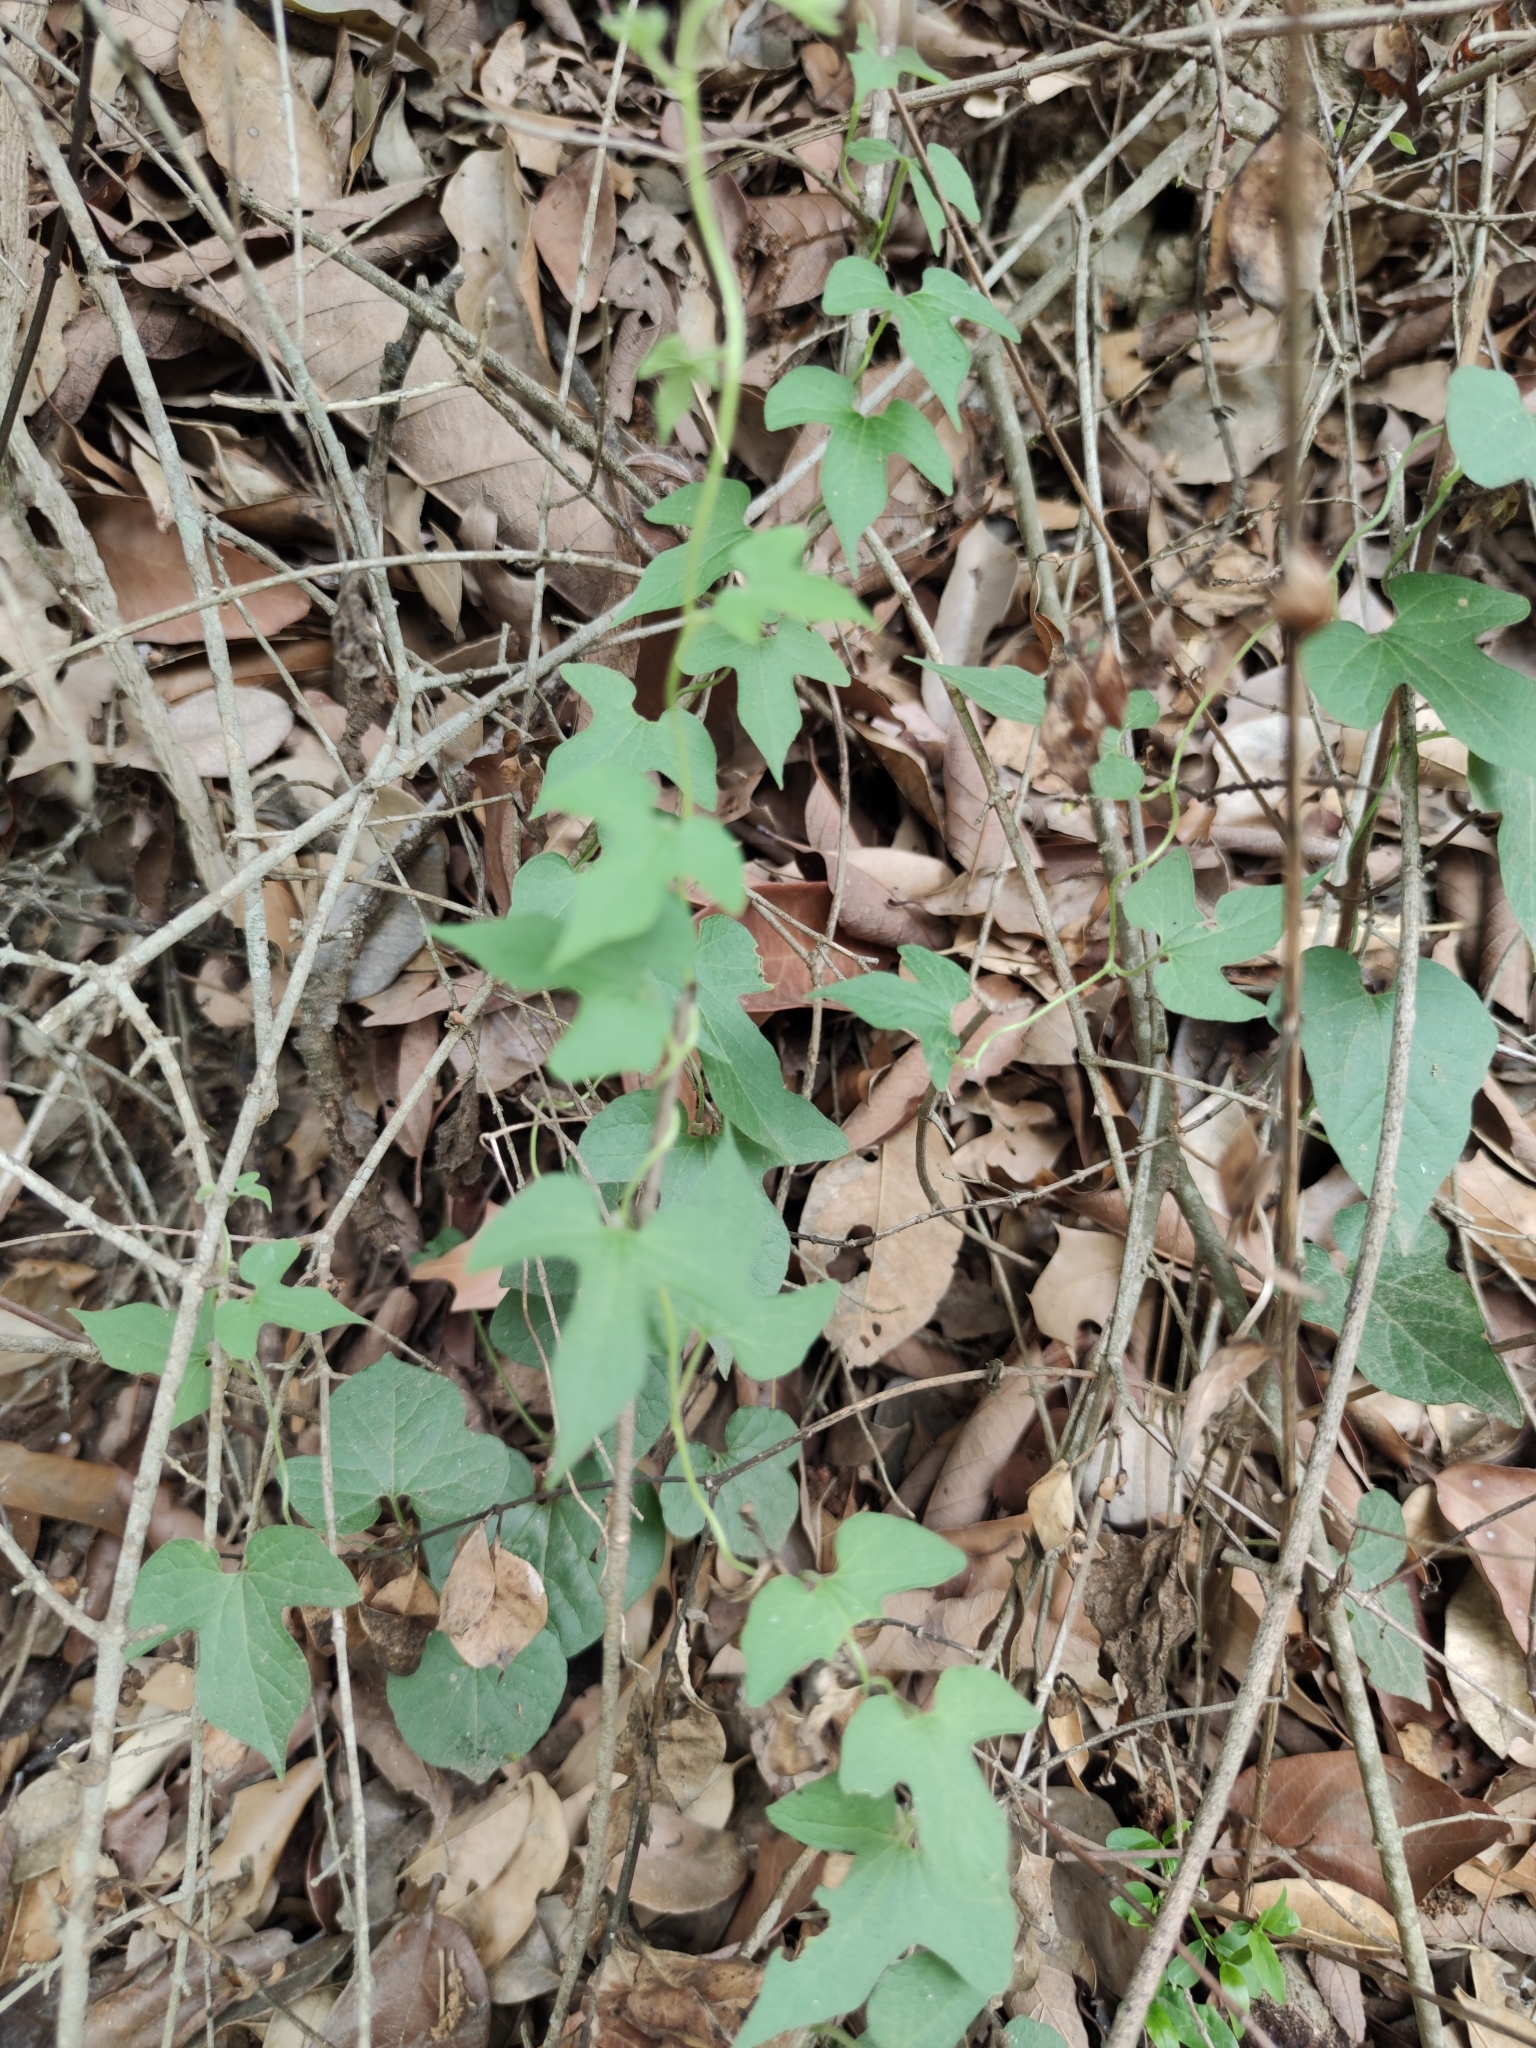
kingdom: Plantae
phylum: Tracheophyta
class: Magnoliopsida
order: Piperales
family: Aristolochiaceae
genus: Aristolochia
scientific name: Aristolochia pentandra
